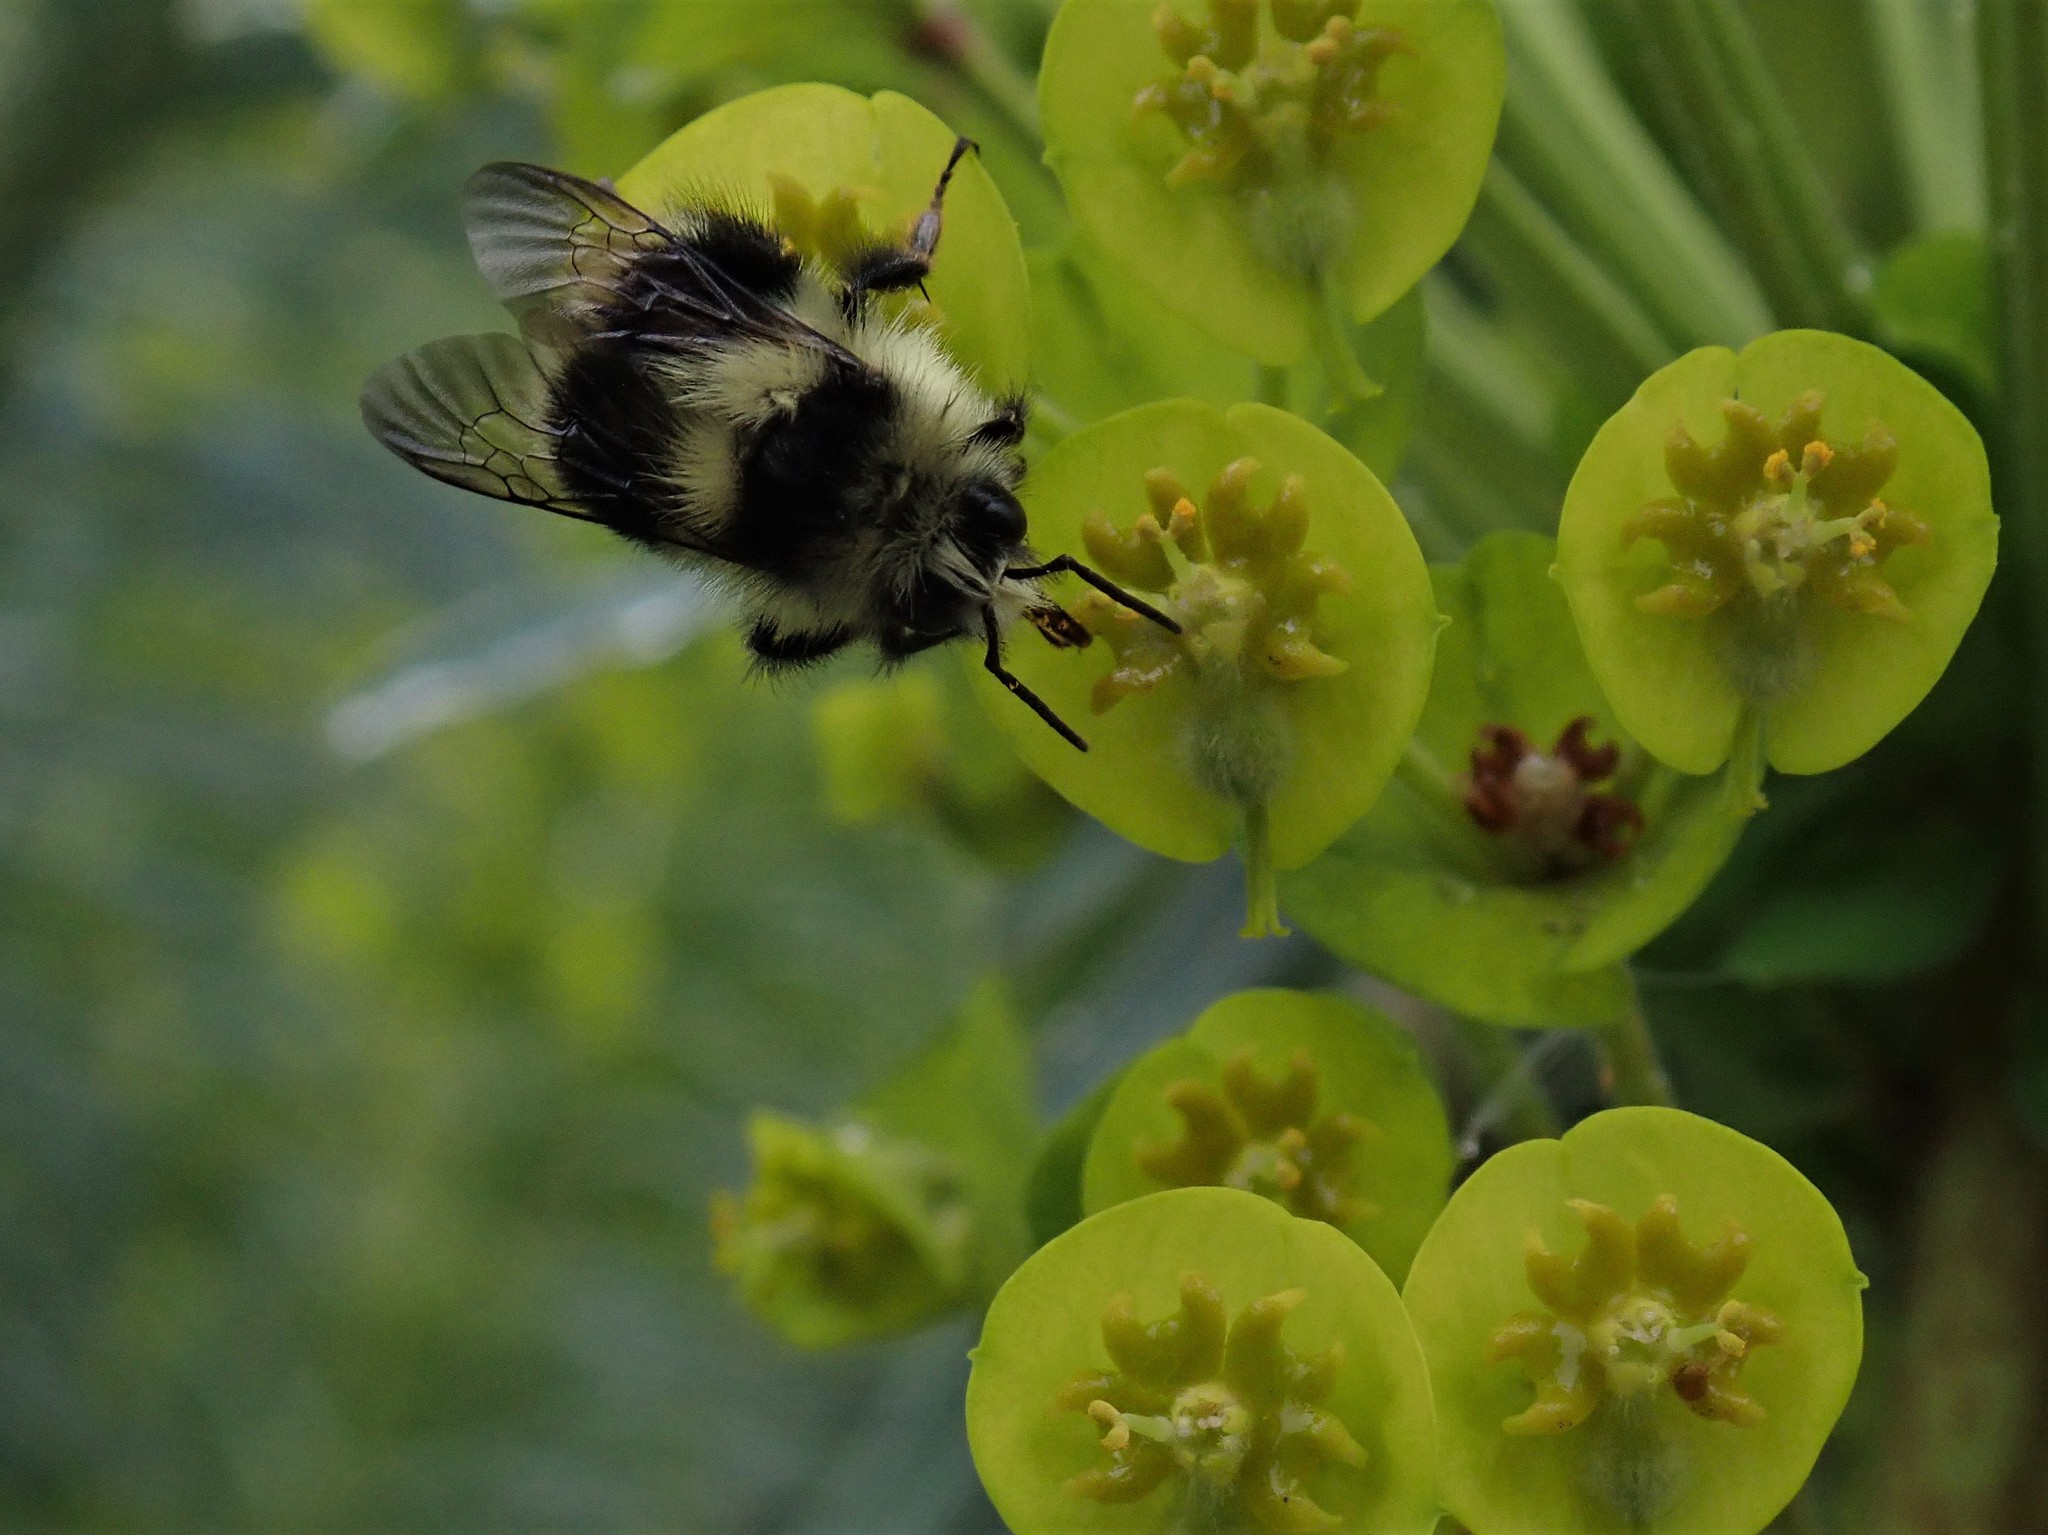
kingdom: Animalia
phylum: Arthropoda
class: Insecta
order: Hymenoptera
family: Apidae
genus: Bombus
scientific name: Bombus melanopygus
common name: Black tail bumble bee
